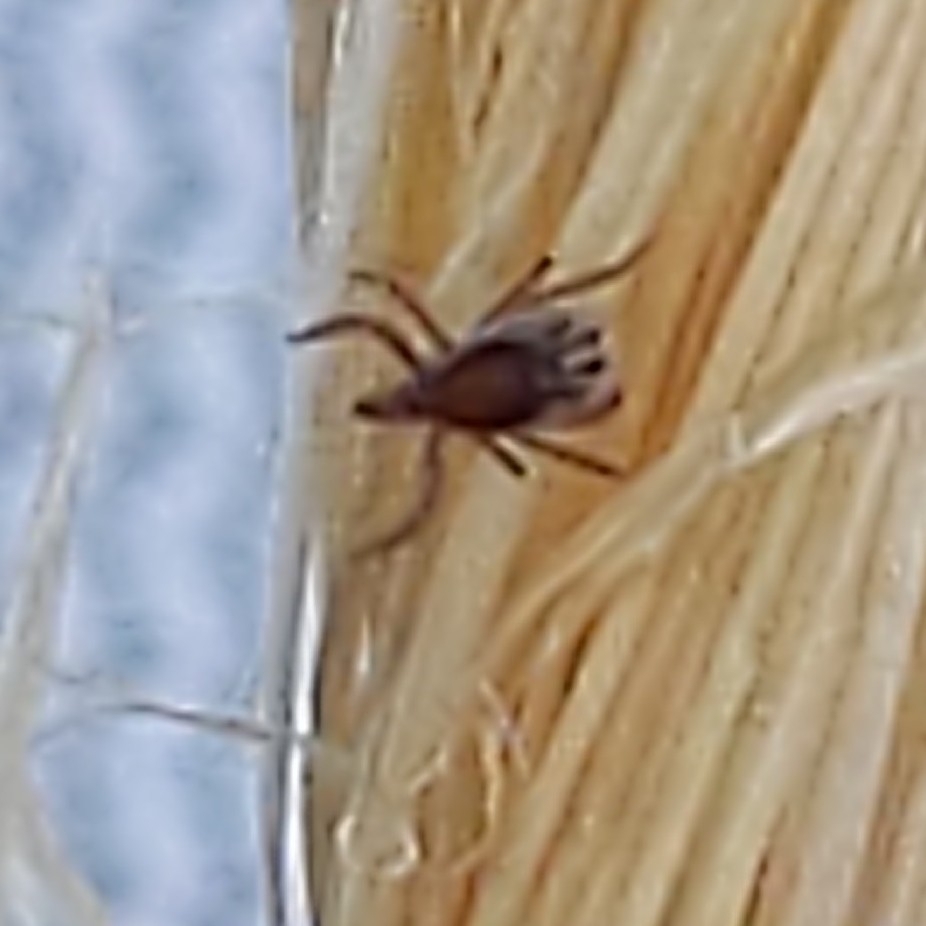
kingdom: Animalia
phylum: Arthropoda
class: Arachnida
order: Ixodida
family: Ixodidae
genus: Ixodes
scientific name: Ixodes scapularis
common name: Black legged tick
